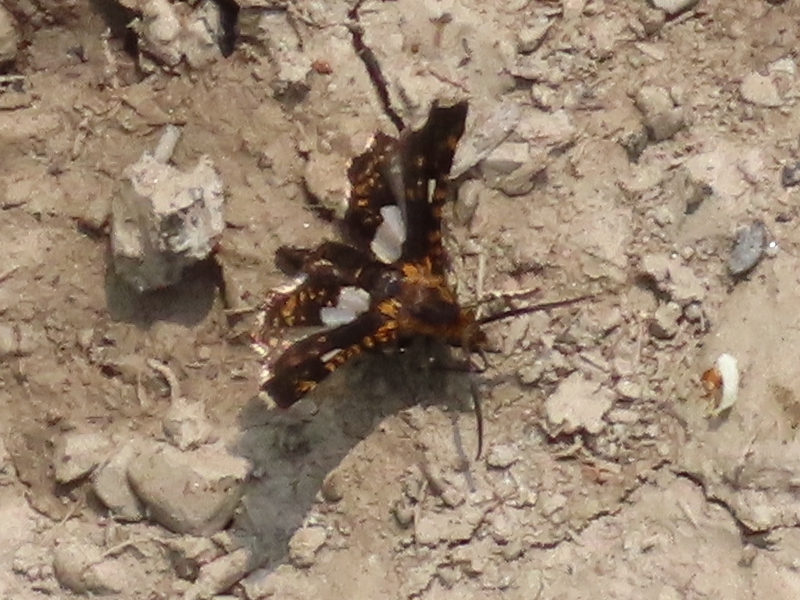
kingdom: Animalia
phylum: Arthropoda
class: Insecta
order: Lepidoptera
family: Thyrididae
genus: Thyris
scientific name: Thyris maculata
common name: Spotted thyris moth
